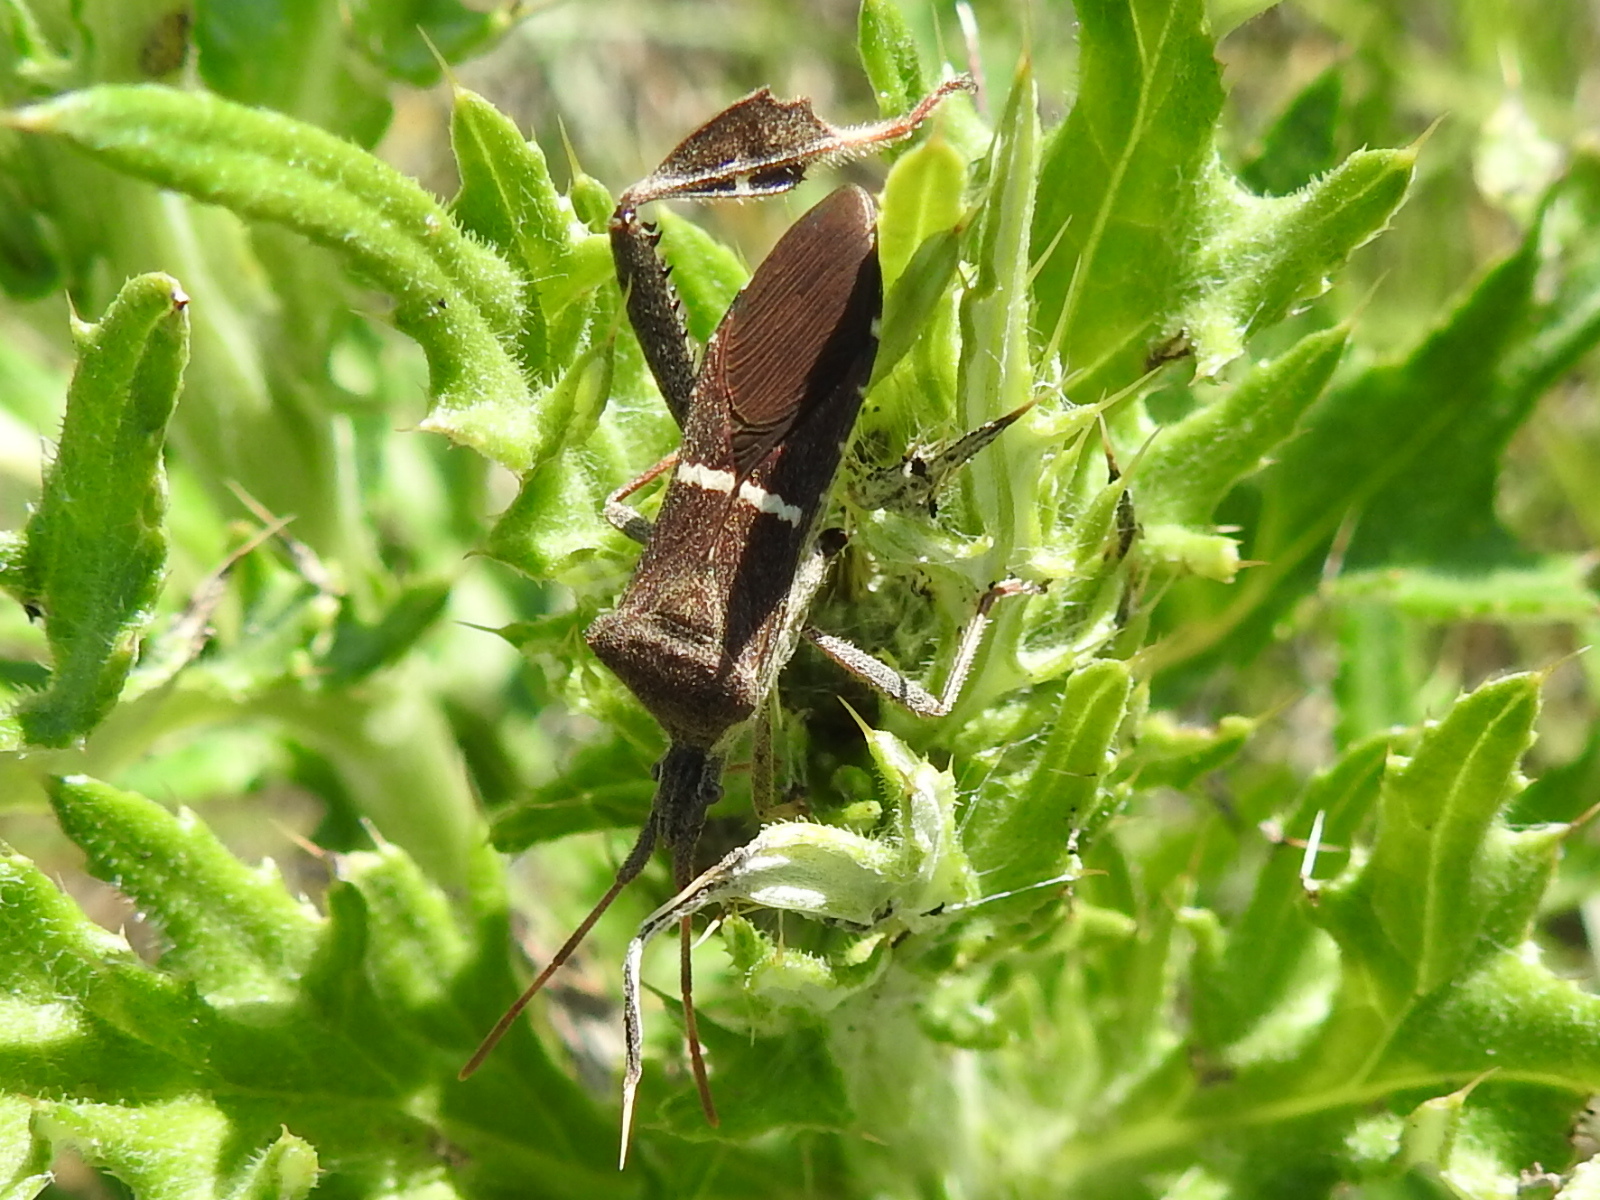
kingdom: Animalia
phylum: Arthropoda
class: Insecta
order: Hemiptera
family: Coreidae
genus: Leptoglossus
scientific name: Leptoglossus phyllopus
